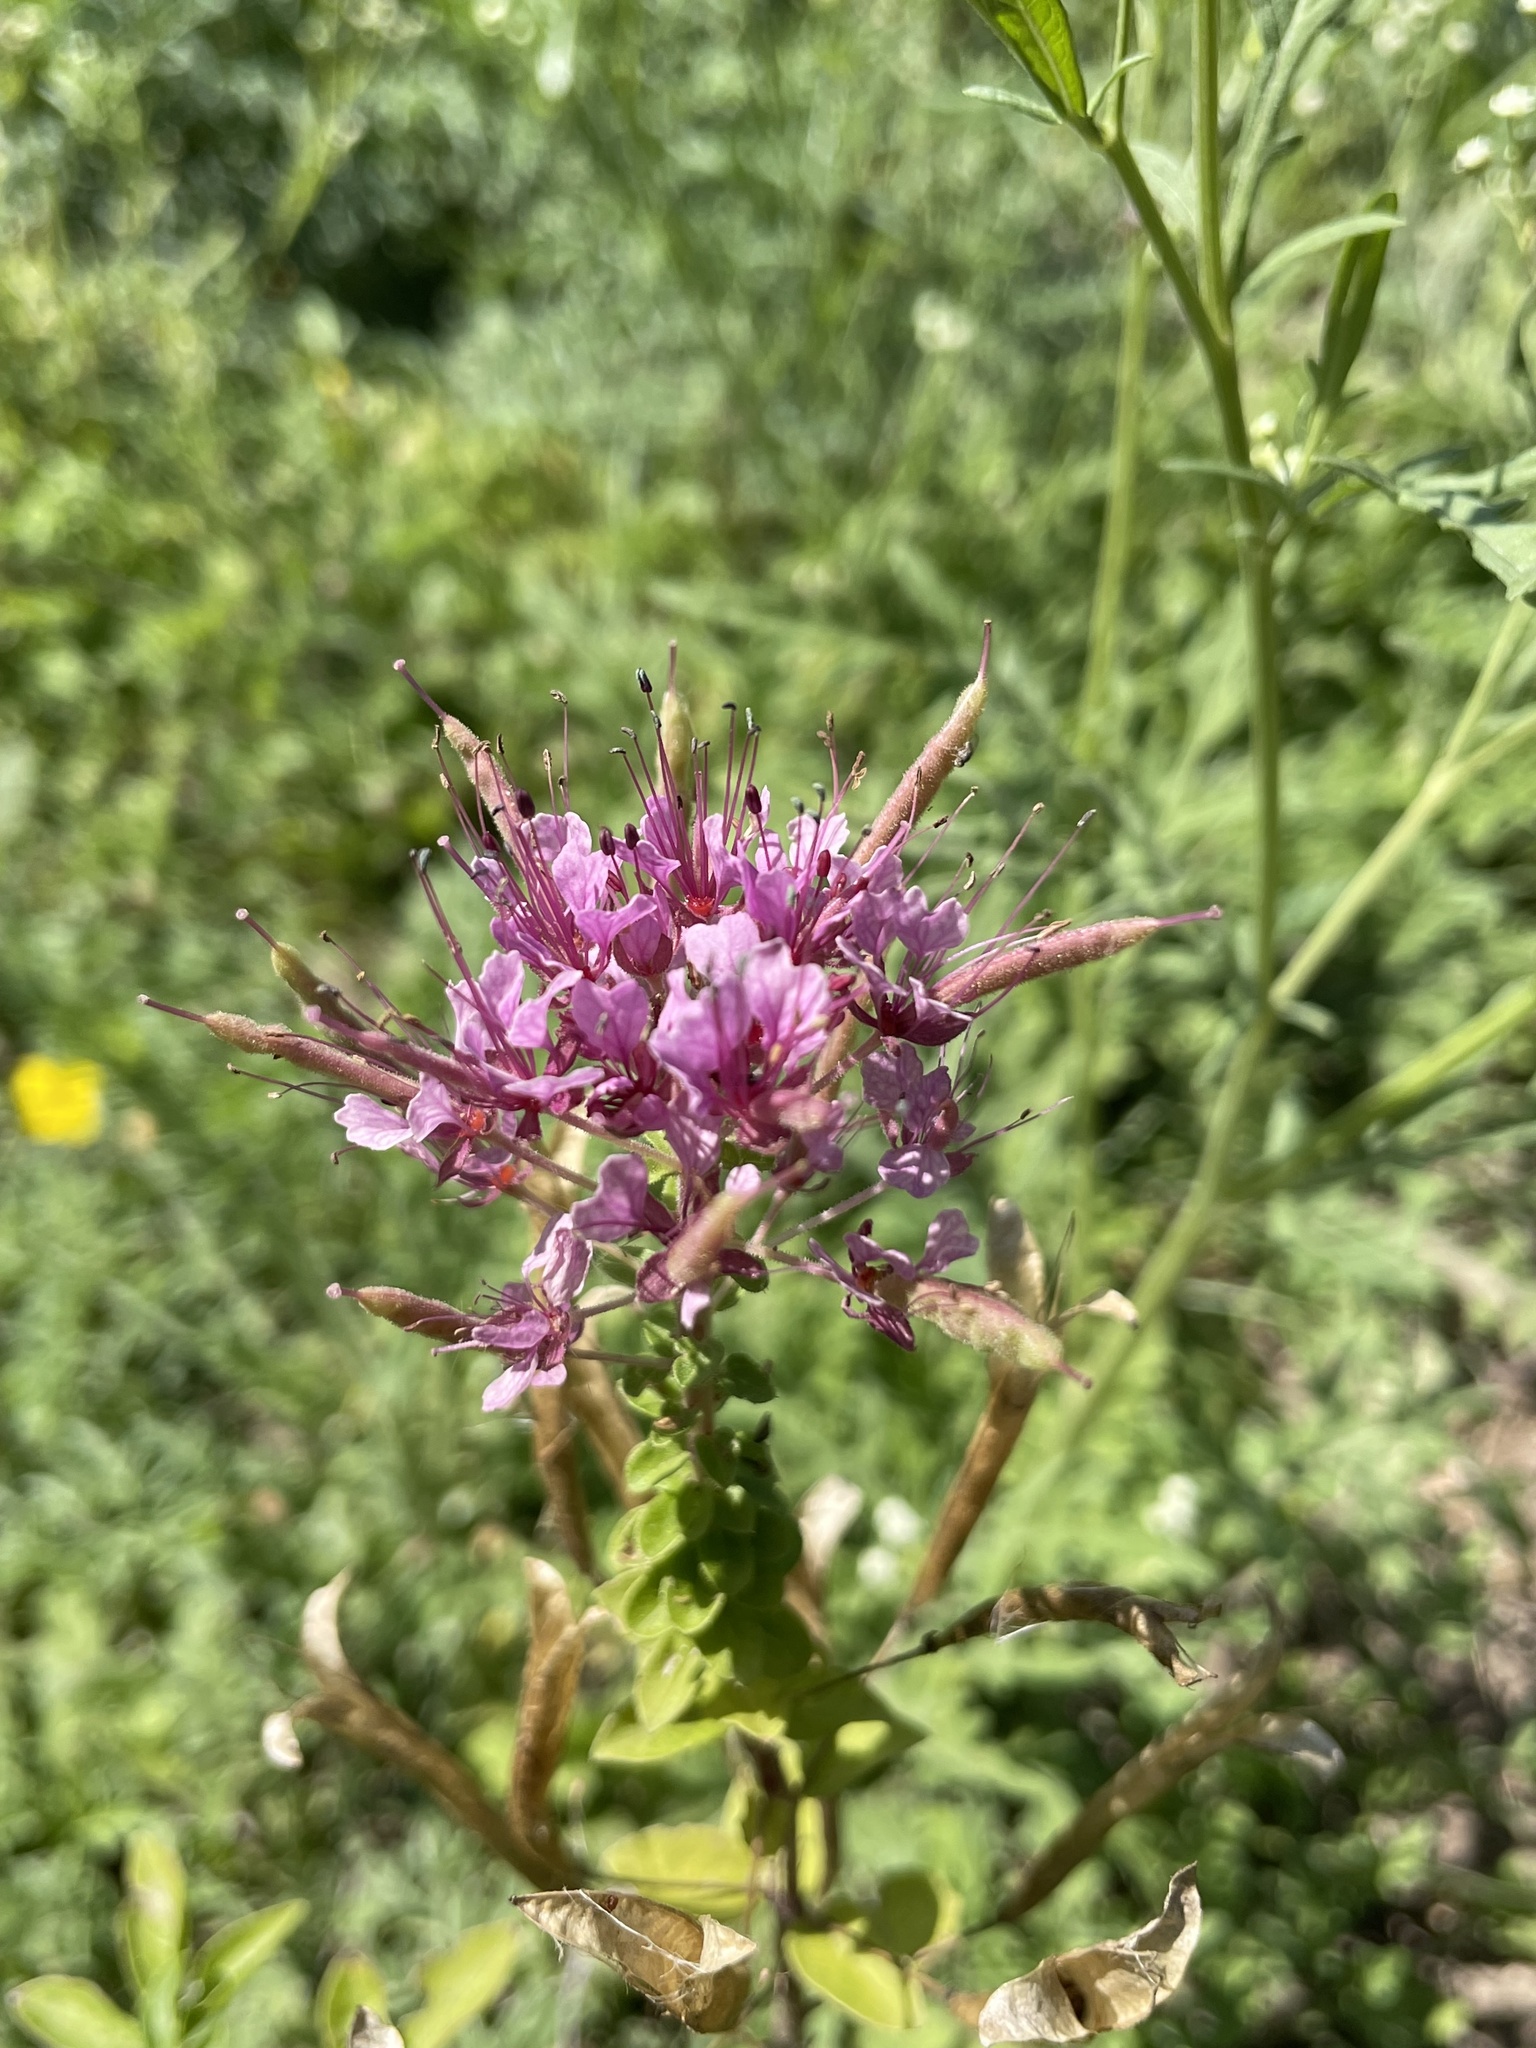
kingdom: Plantae
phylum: Tracheophyta
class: Magnoliopsida
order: Brassicales
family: Cleomaceae
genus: Polanisia
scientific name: Polanisia dodecandra
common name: Clammyweed
